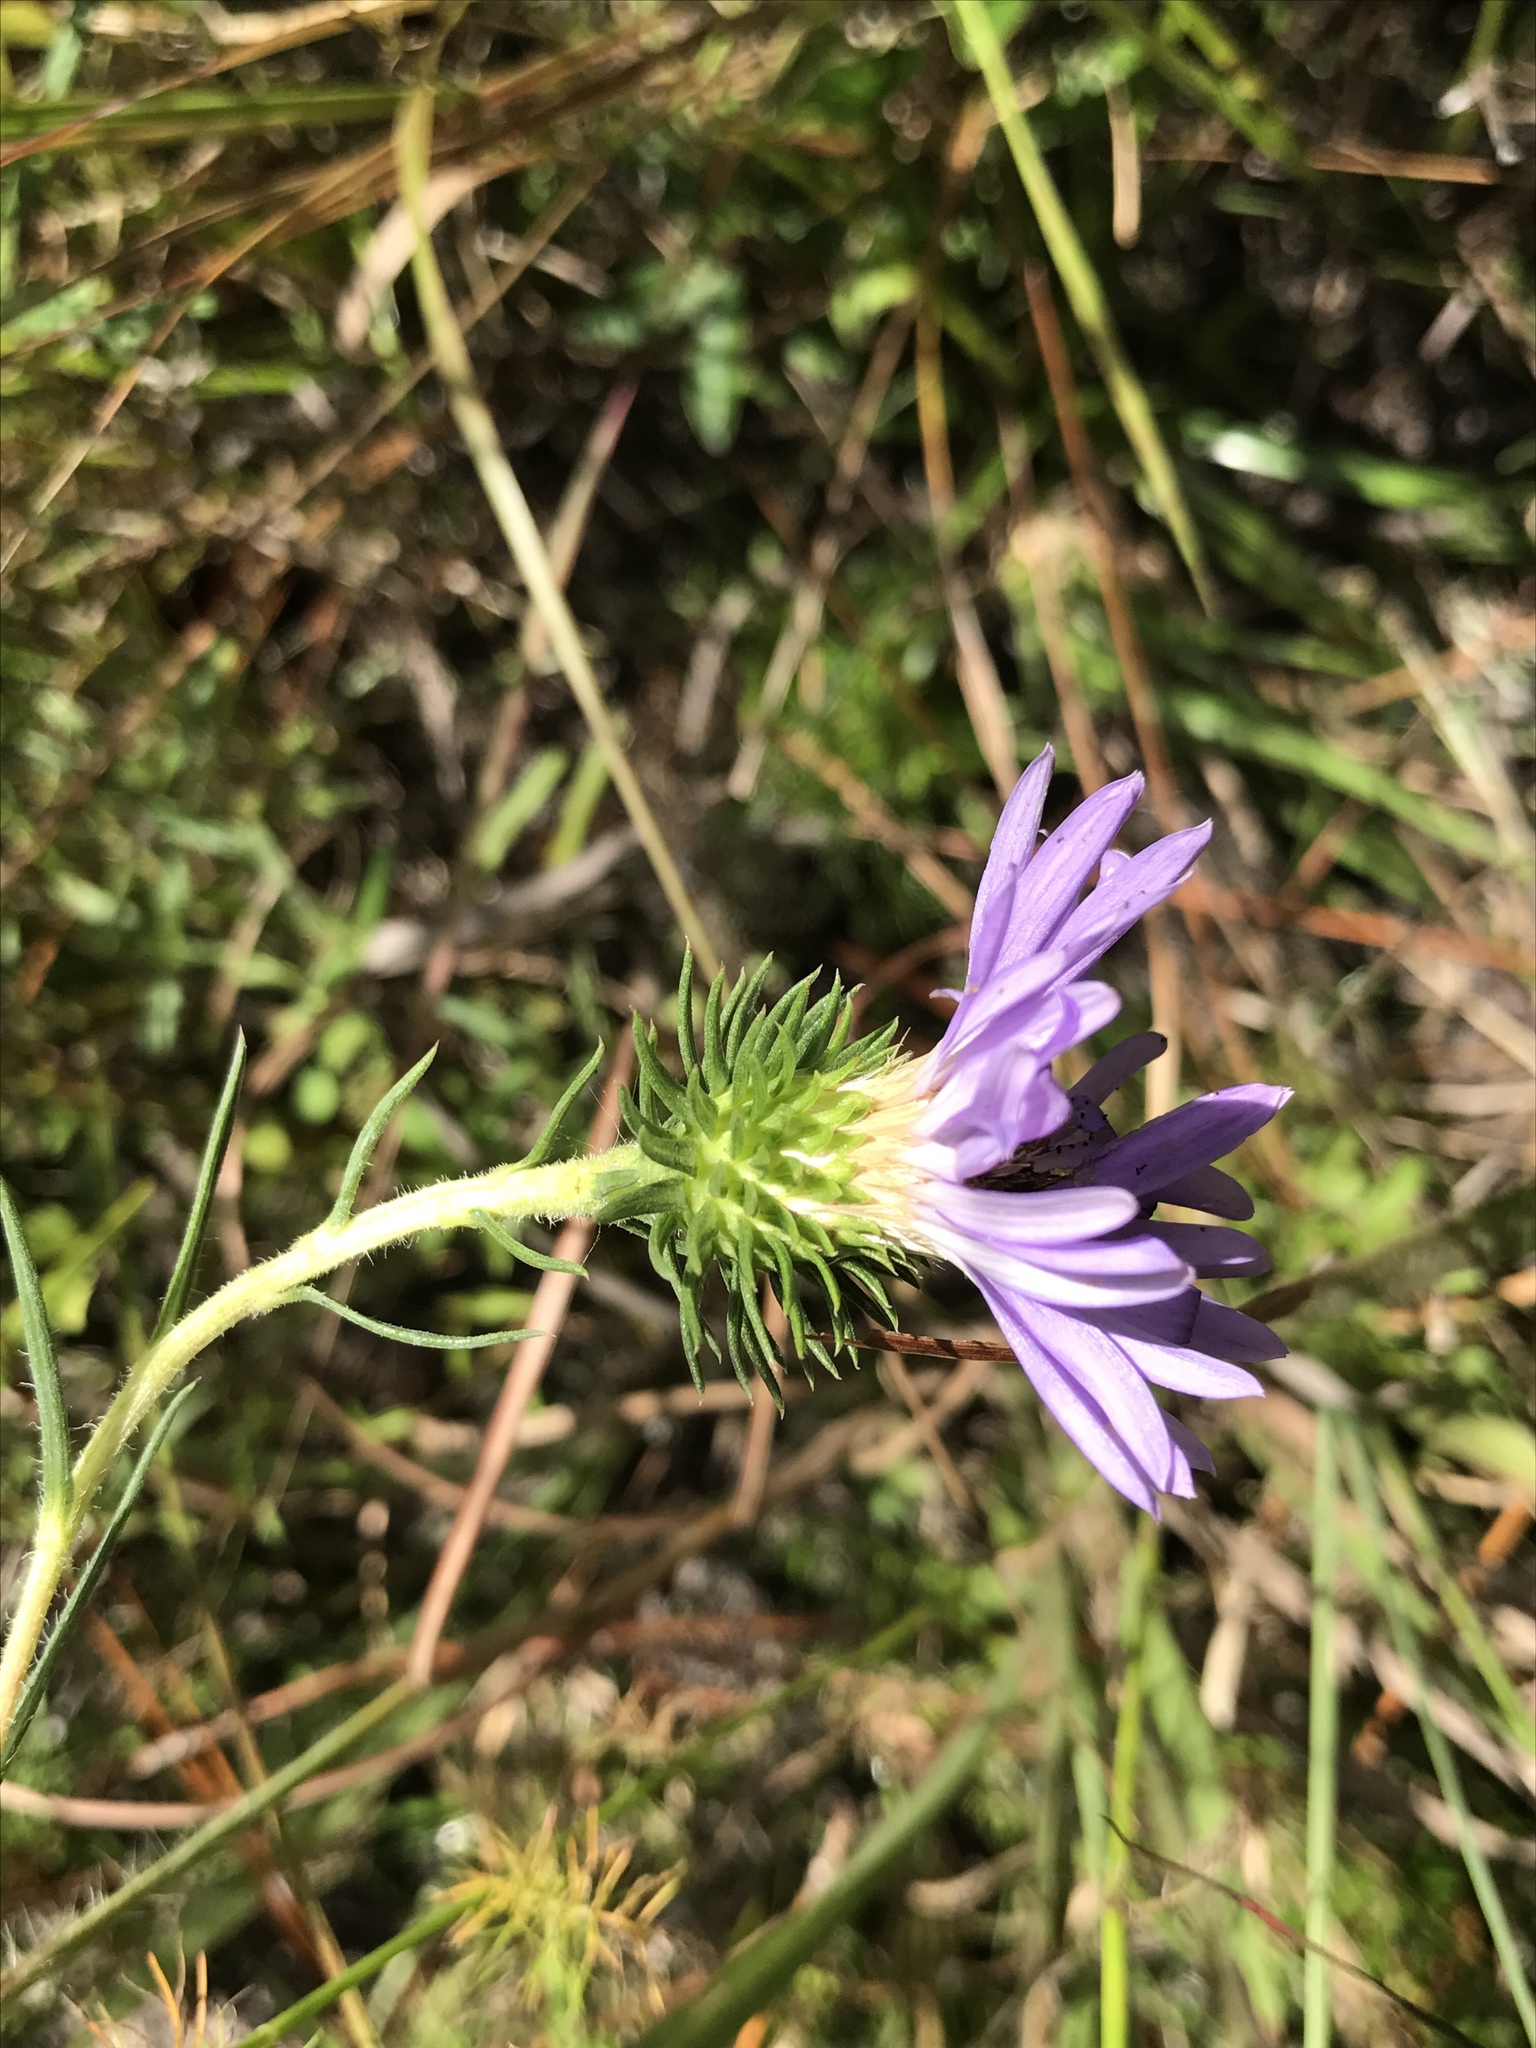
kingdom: Plantae
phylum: Tracheophyta
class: Magnoliopsida
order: Asterales
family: Asteraceae
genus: Eurybia
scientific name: Eurybia hemispherica
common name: Showy aster
